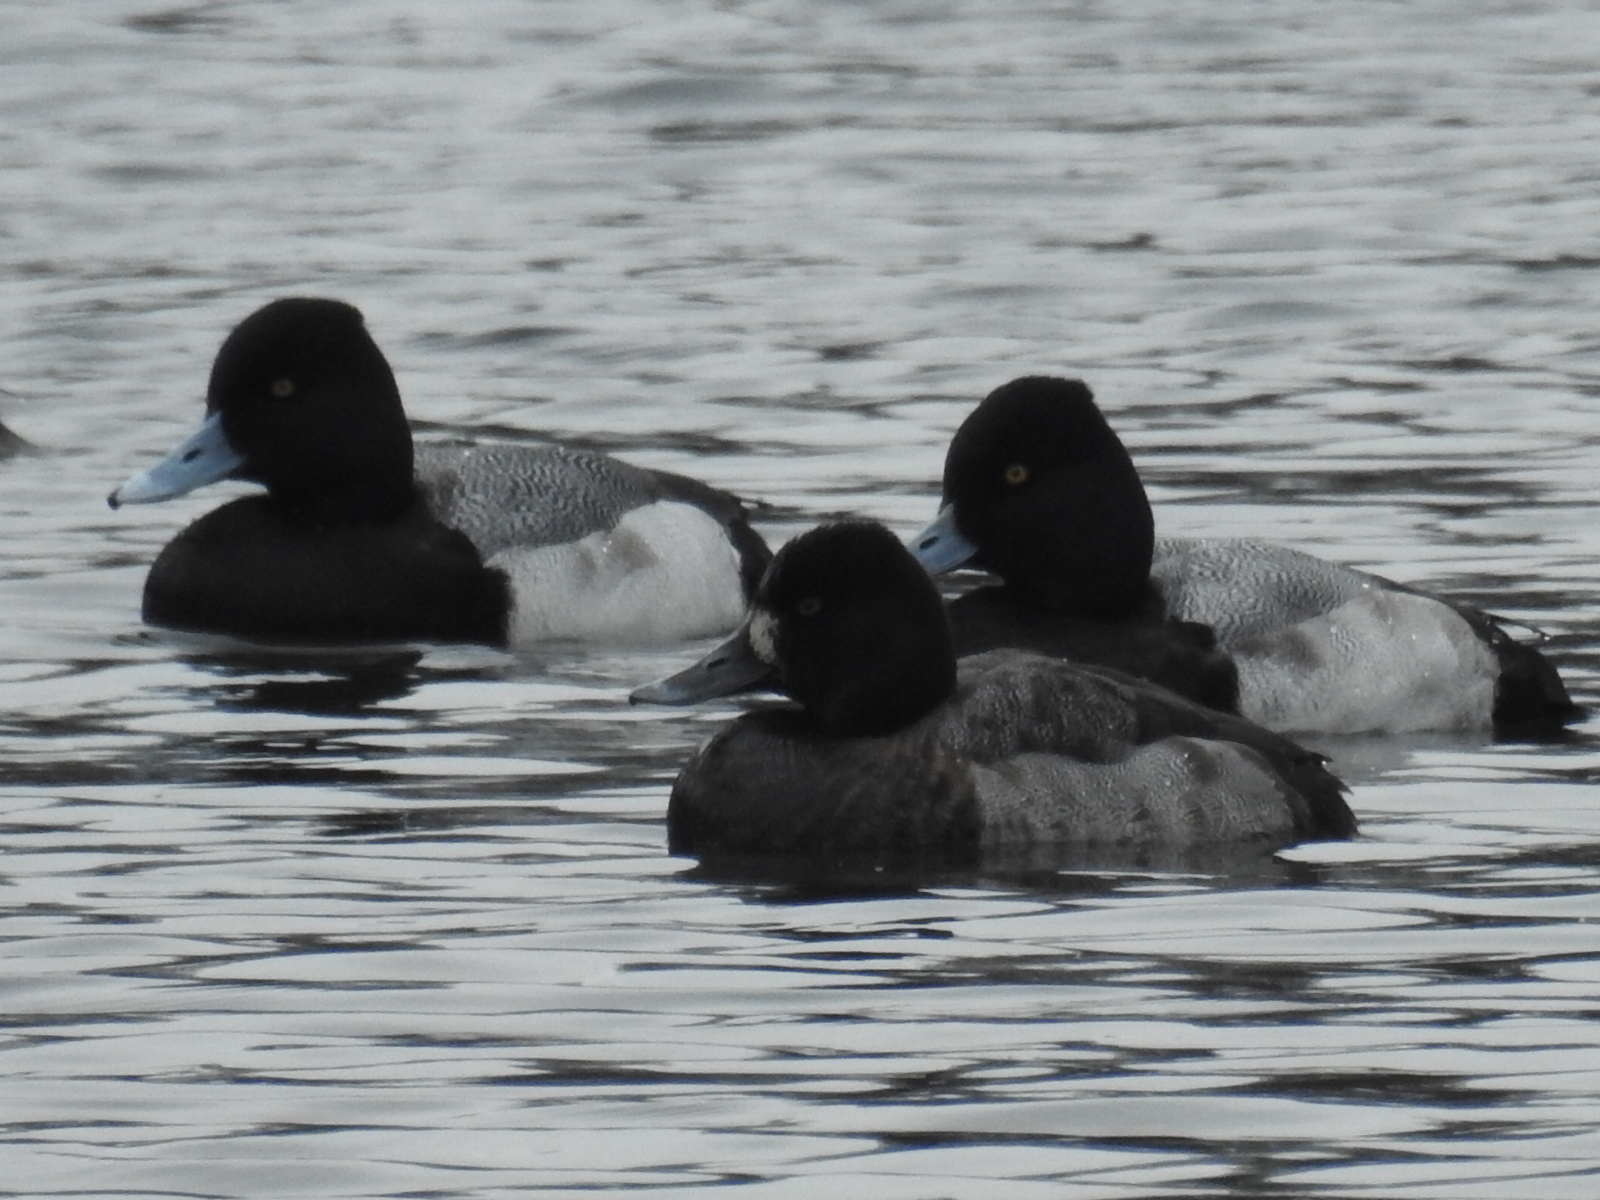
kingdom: Animalia
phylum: Chordata
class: Aves
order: Anseriformes
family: Anatidae
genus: Aythya
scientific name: Aythya affinis
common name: Lesser scaup
